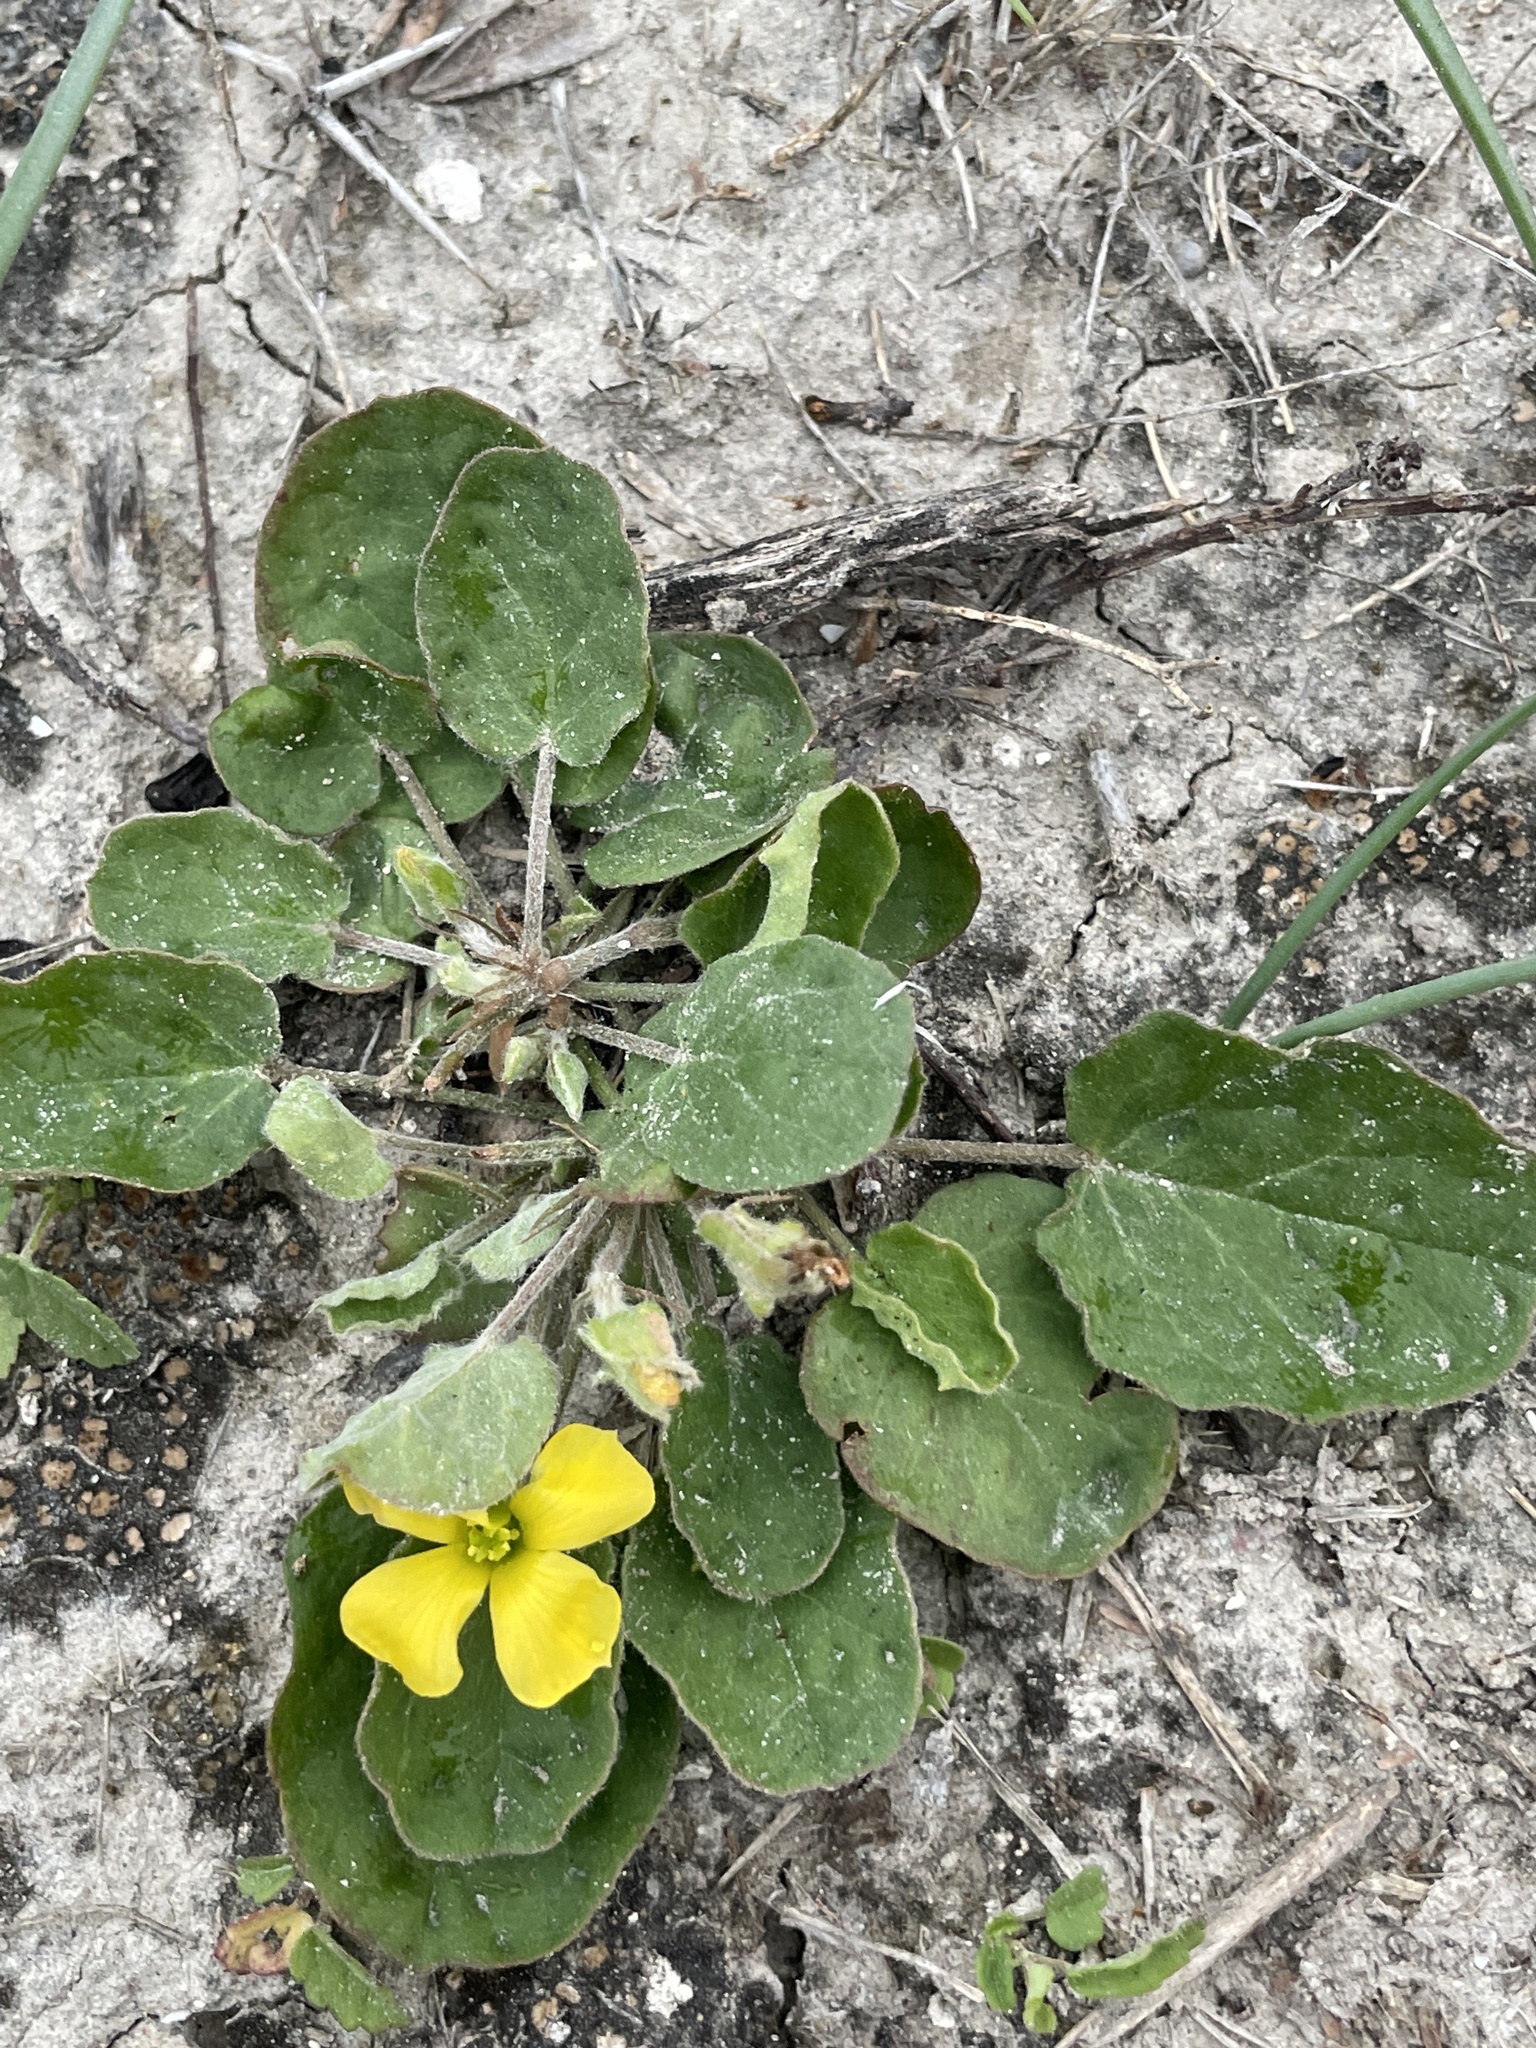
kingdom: Plantae
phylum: Tracheophyta
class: Magnoliopsida
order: Oxalidales
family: Oxalidaceae
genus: Oxalis
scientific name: Oxalis dichondrifolia
